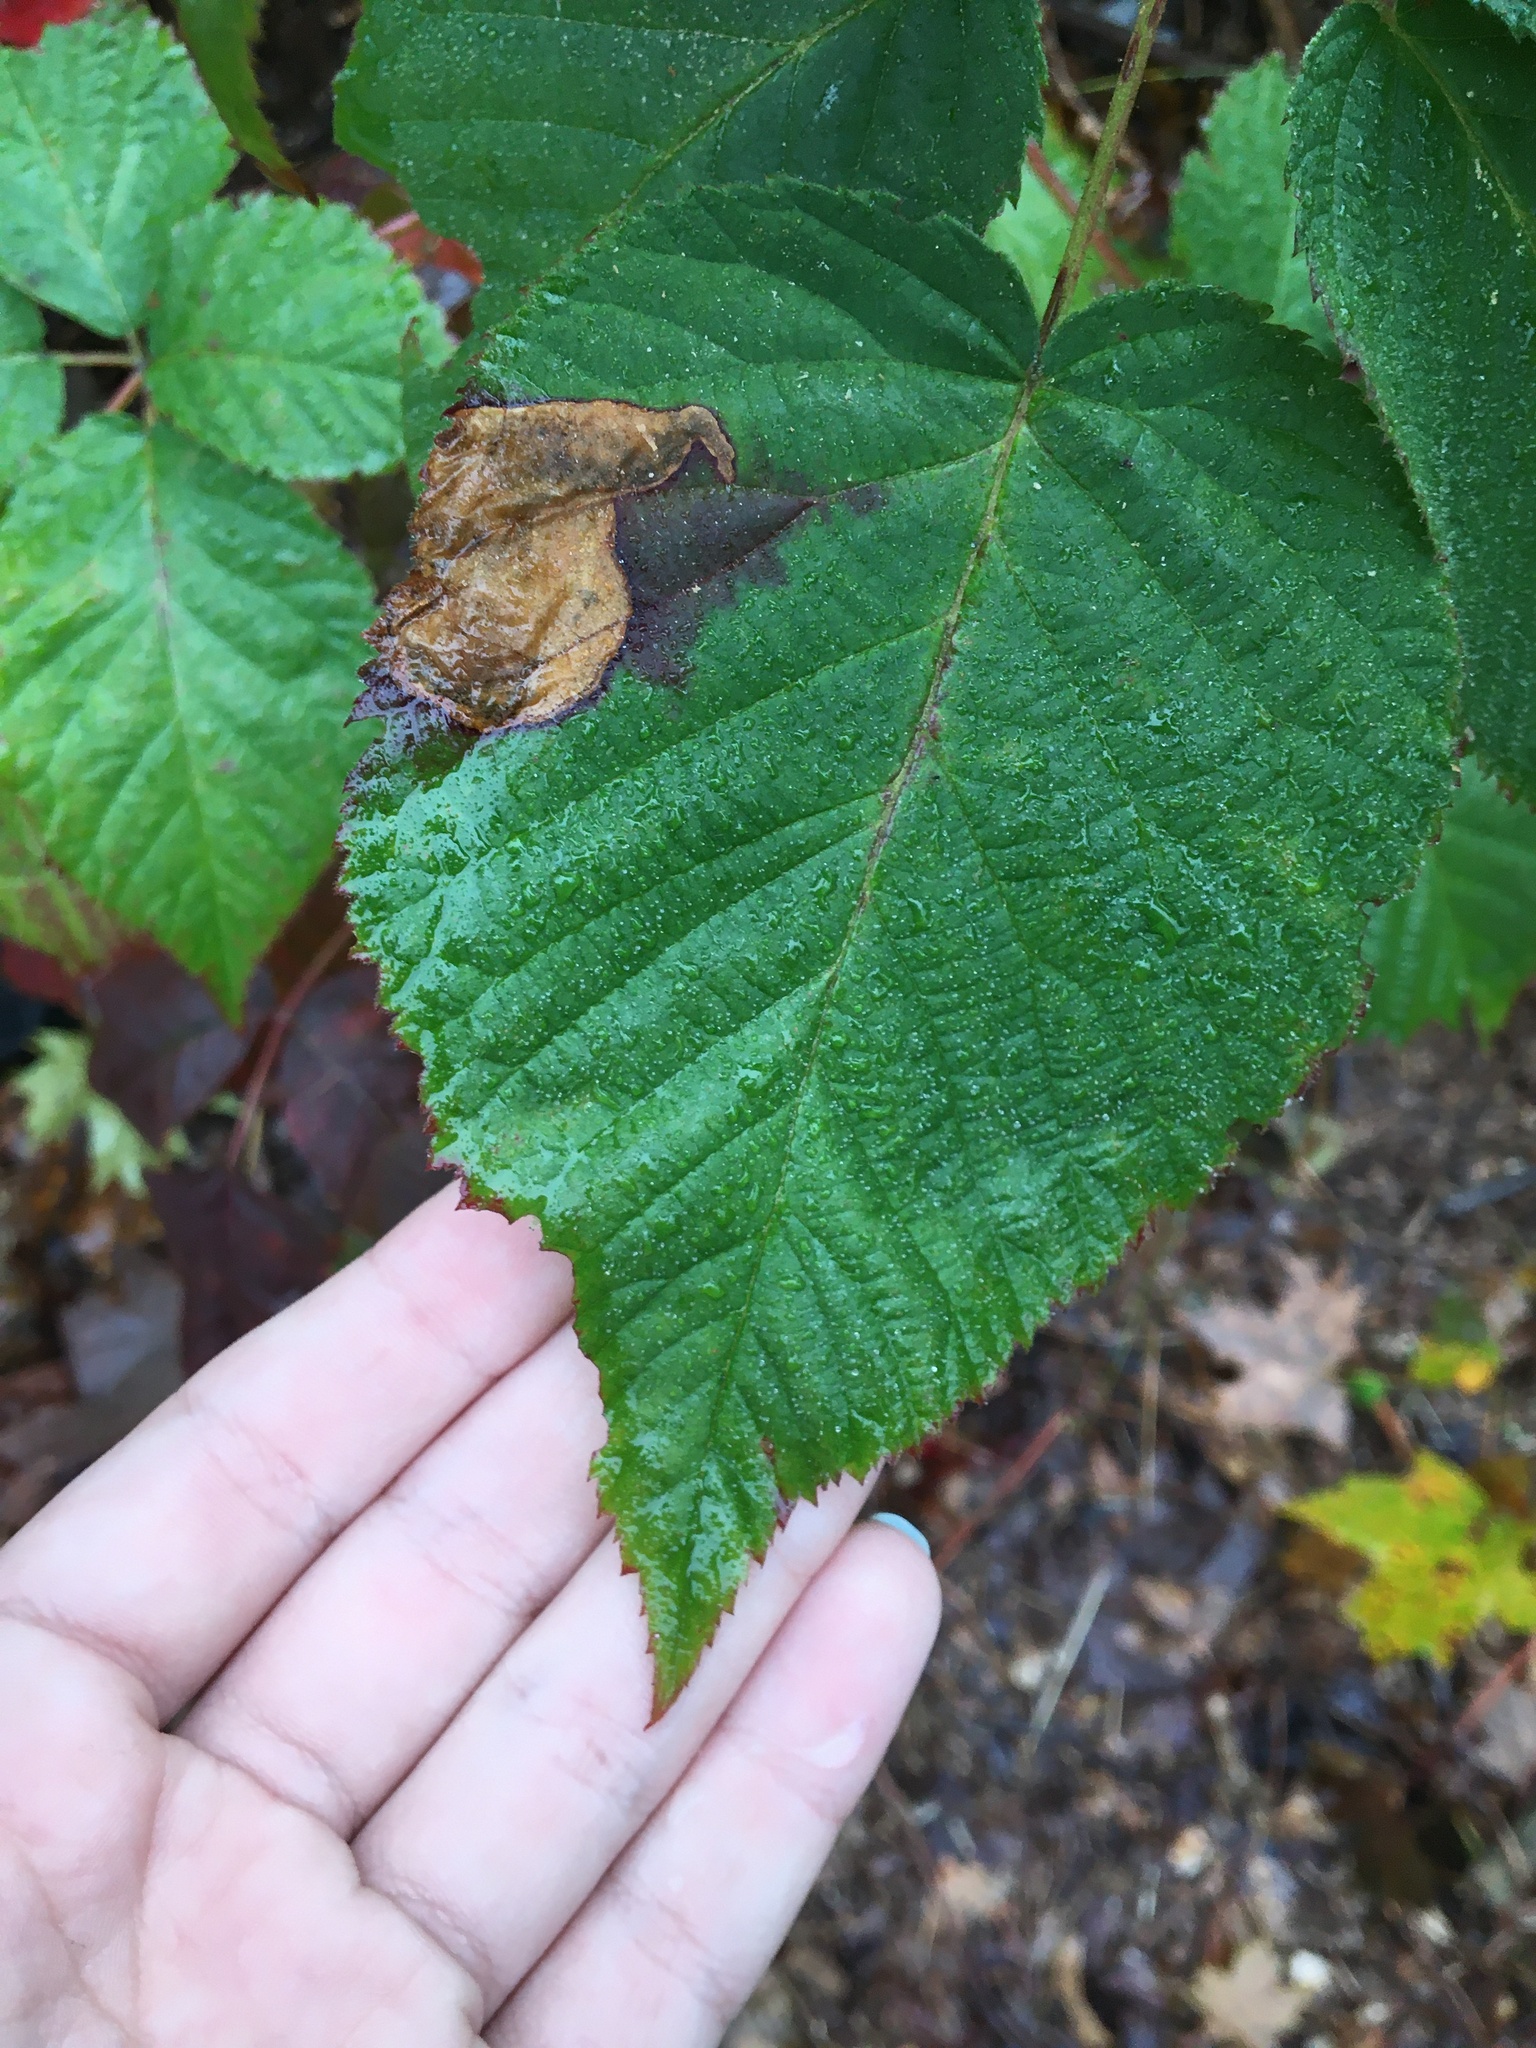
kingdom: Animalia
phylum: Arthropoda
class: Insecta
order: Hymenoptera
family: Tenthredinidae
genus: Metallus
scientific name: Metallus rohweri
